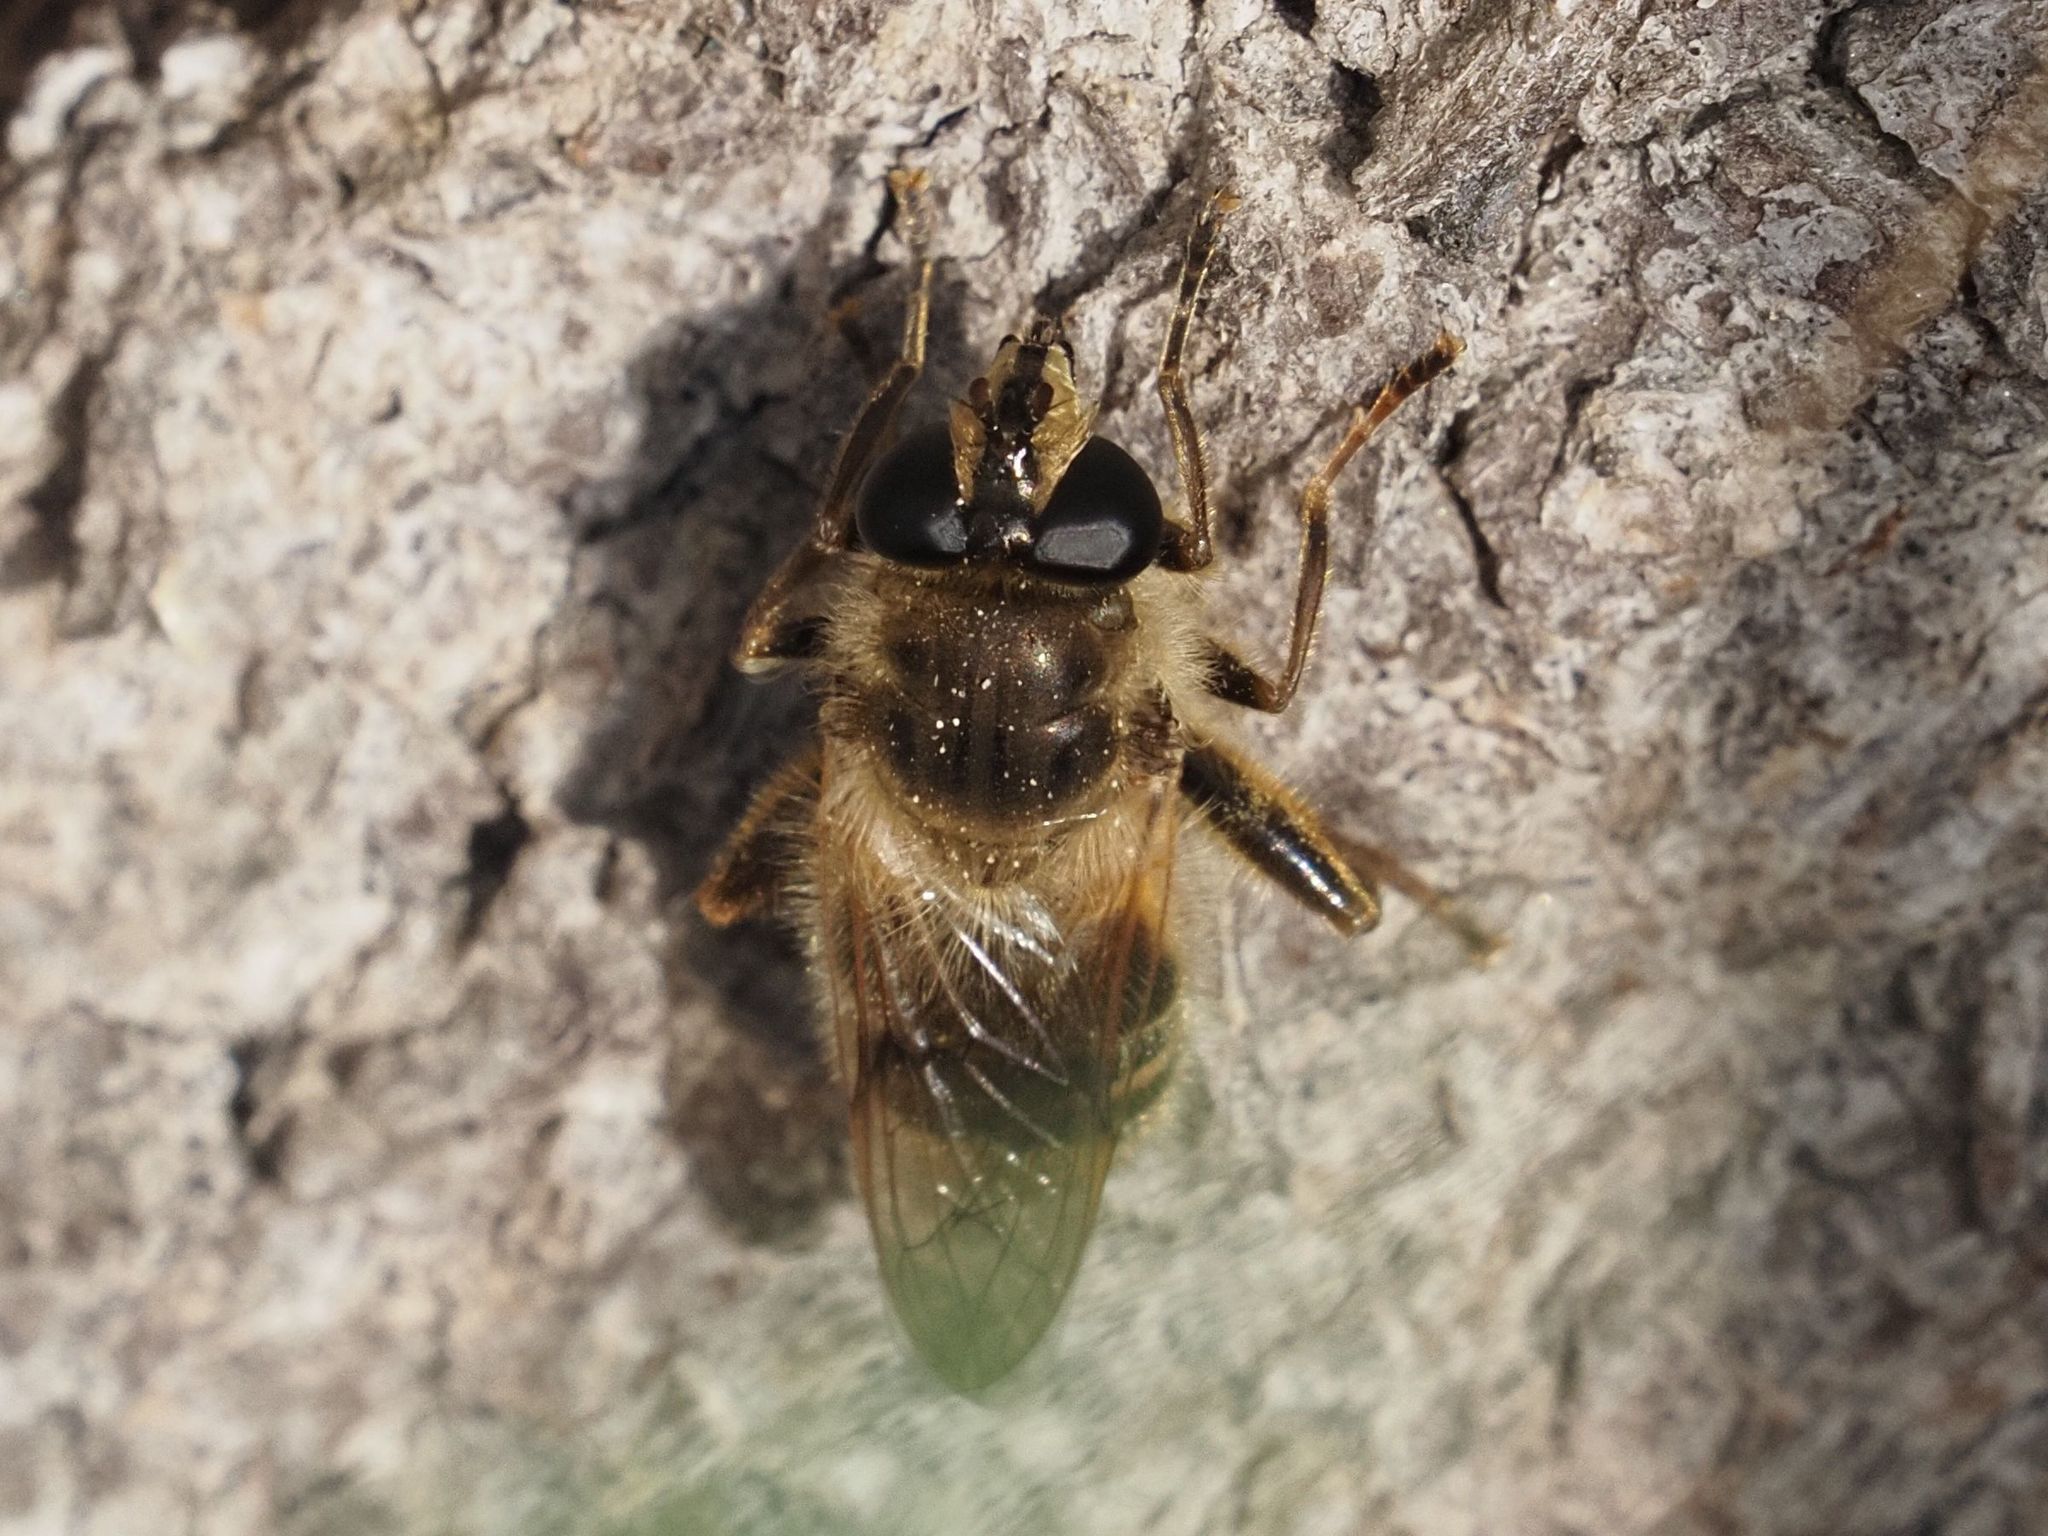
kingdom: Animalia
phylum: Arthropoda
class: Insecta
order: Diptera
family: Syrphidae
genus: Criorhina
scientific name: Criorhina pachymera
